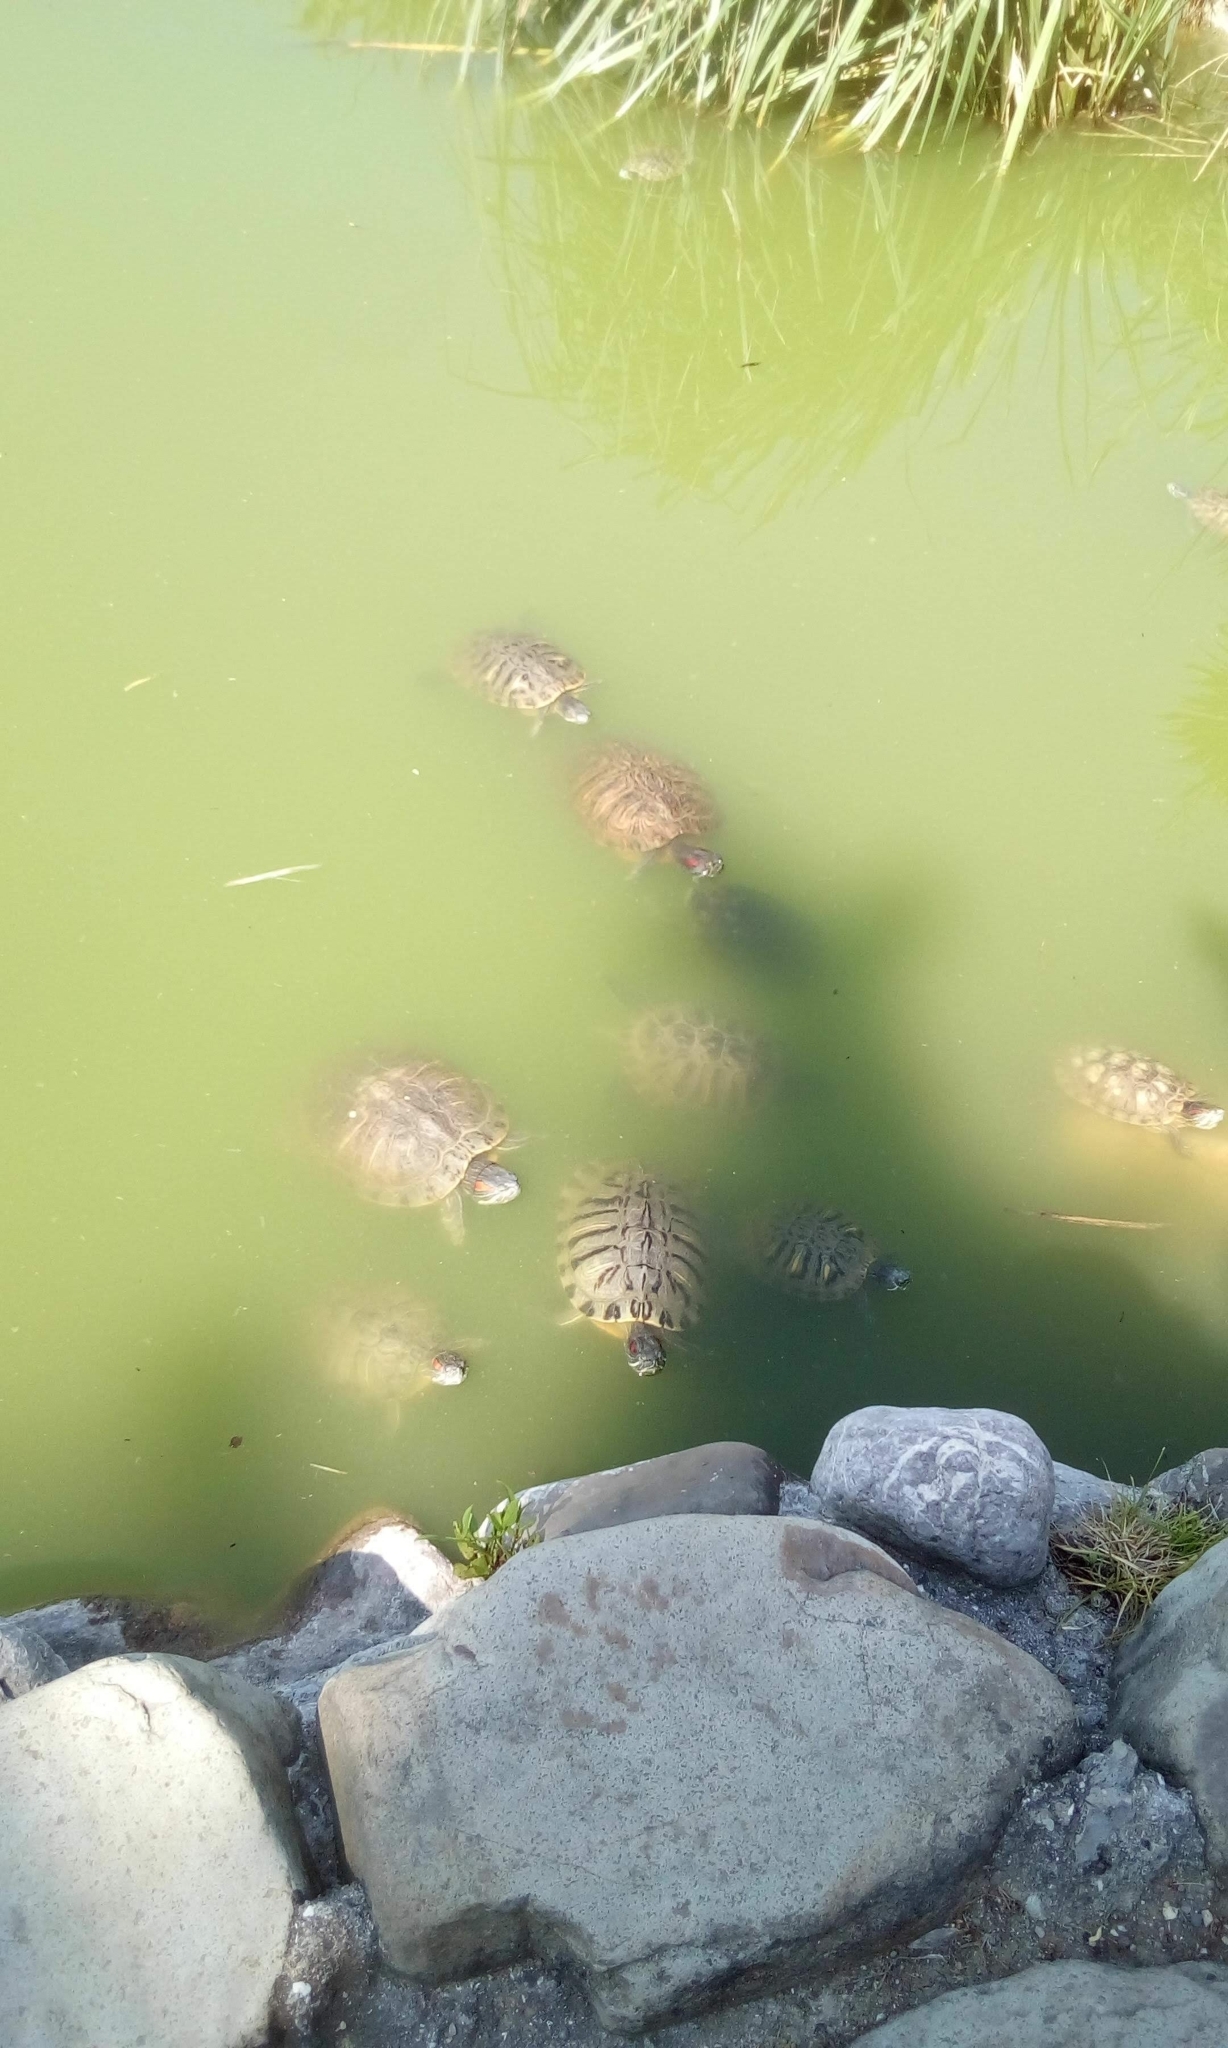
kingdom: Animalia
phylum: Chordata
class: Testudines
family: Emydidae
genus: Trachemys
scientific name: Trachemys scripta
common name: Slider
